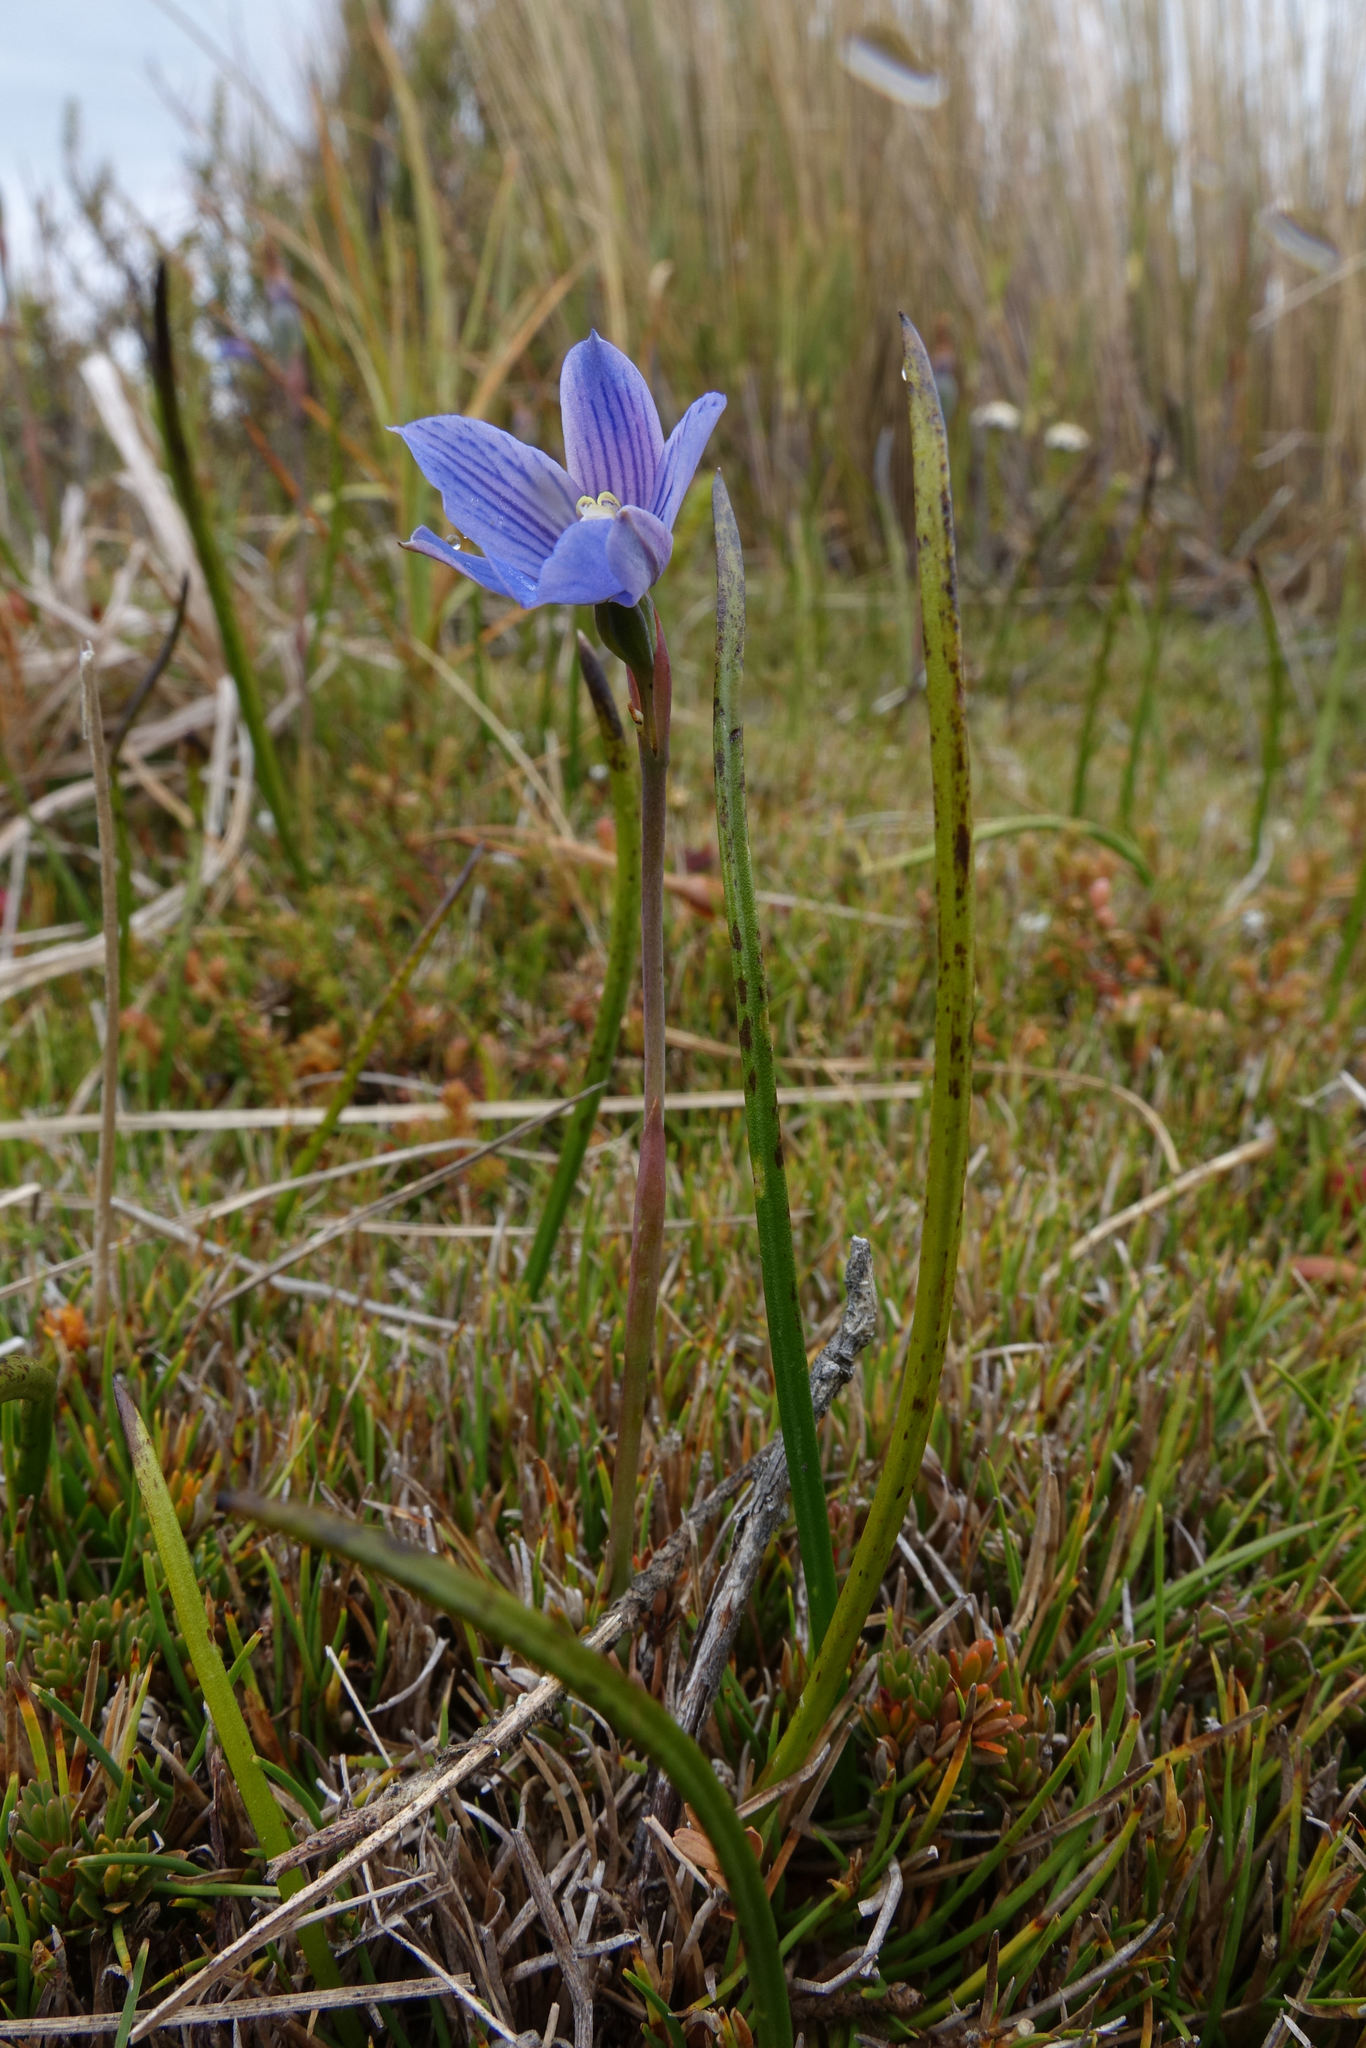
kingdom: Plantae
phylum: Tracheophyta
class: Liliopsida
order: Asparagales
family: Orchidaceae
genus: Thelymitra
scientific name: Thelymitra cyanea
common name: Blue sun-orchid
